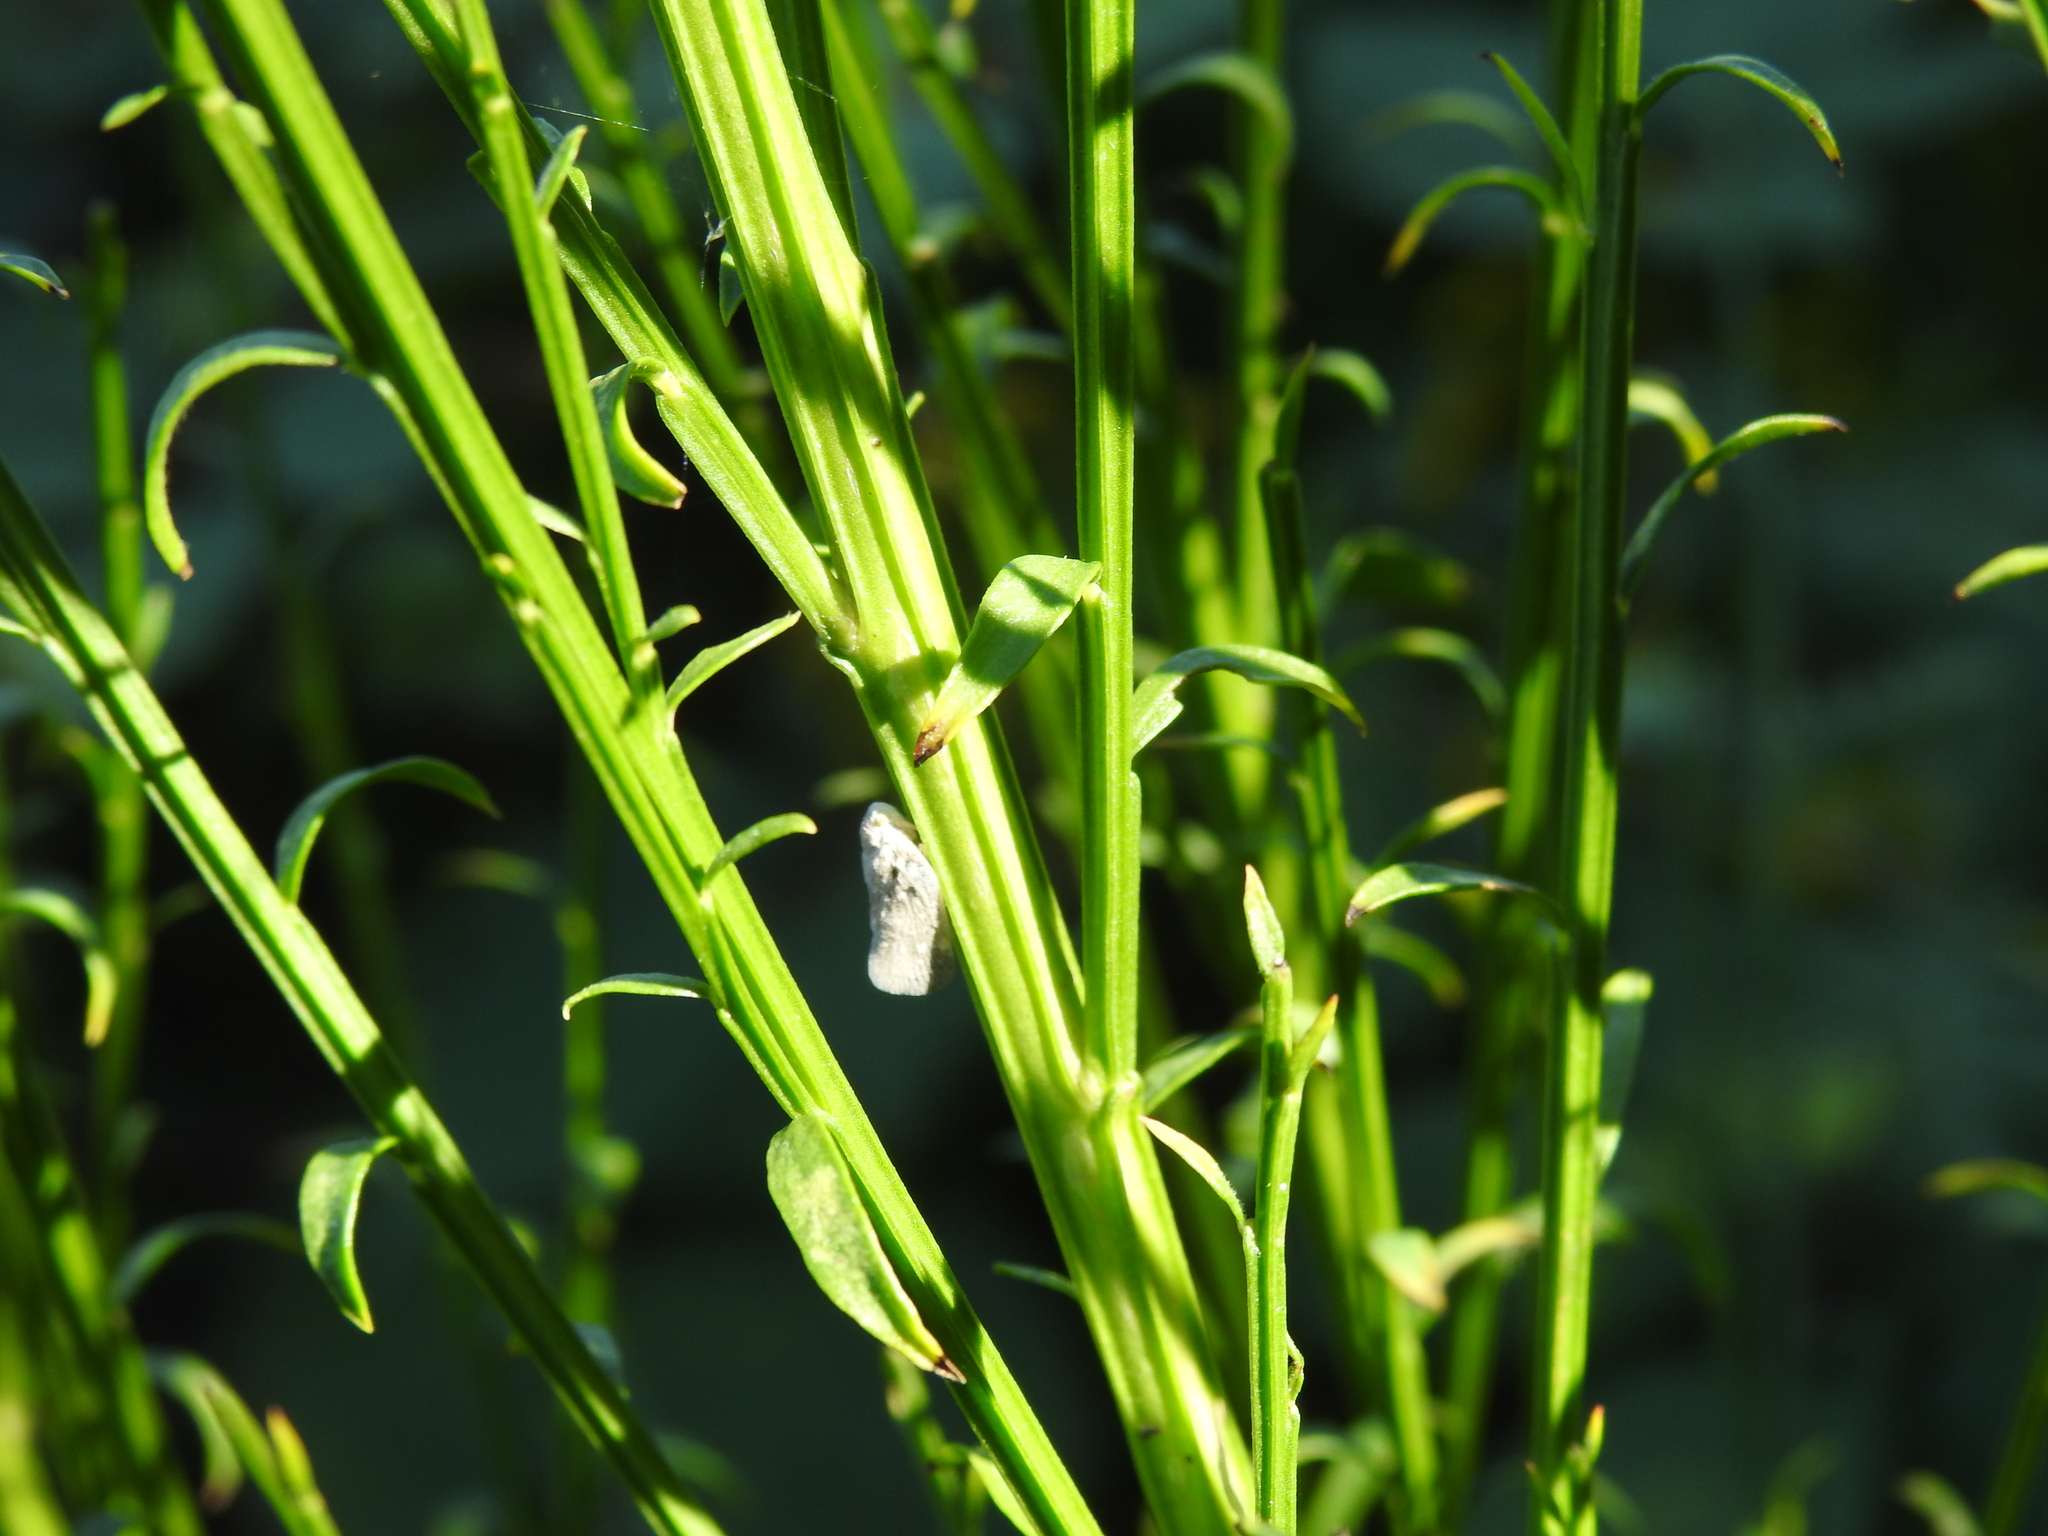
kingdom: Animalia
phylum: Arthropoda
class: Insecta
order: Hemiptera
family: Flatidae
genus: Metcalfa
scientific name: Metcalfa pruinosa
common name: Citrus flatid planthopper
